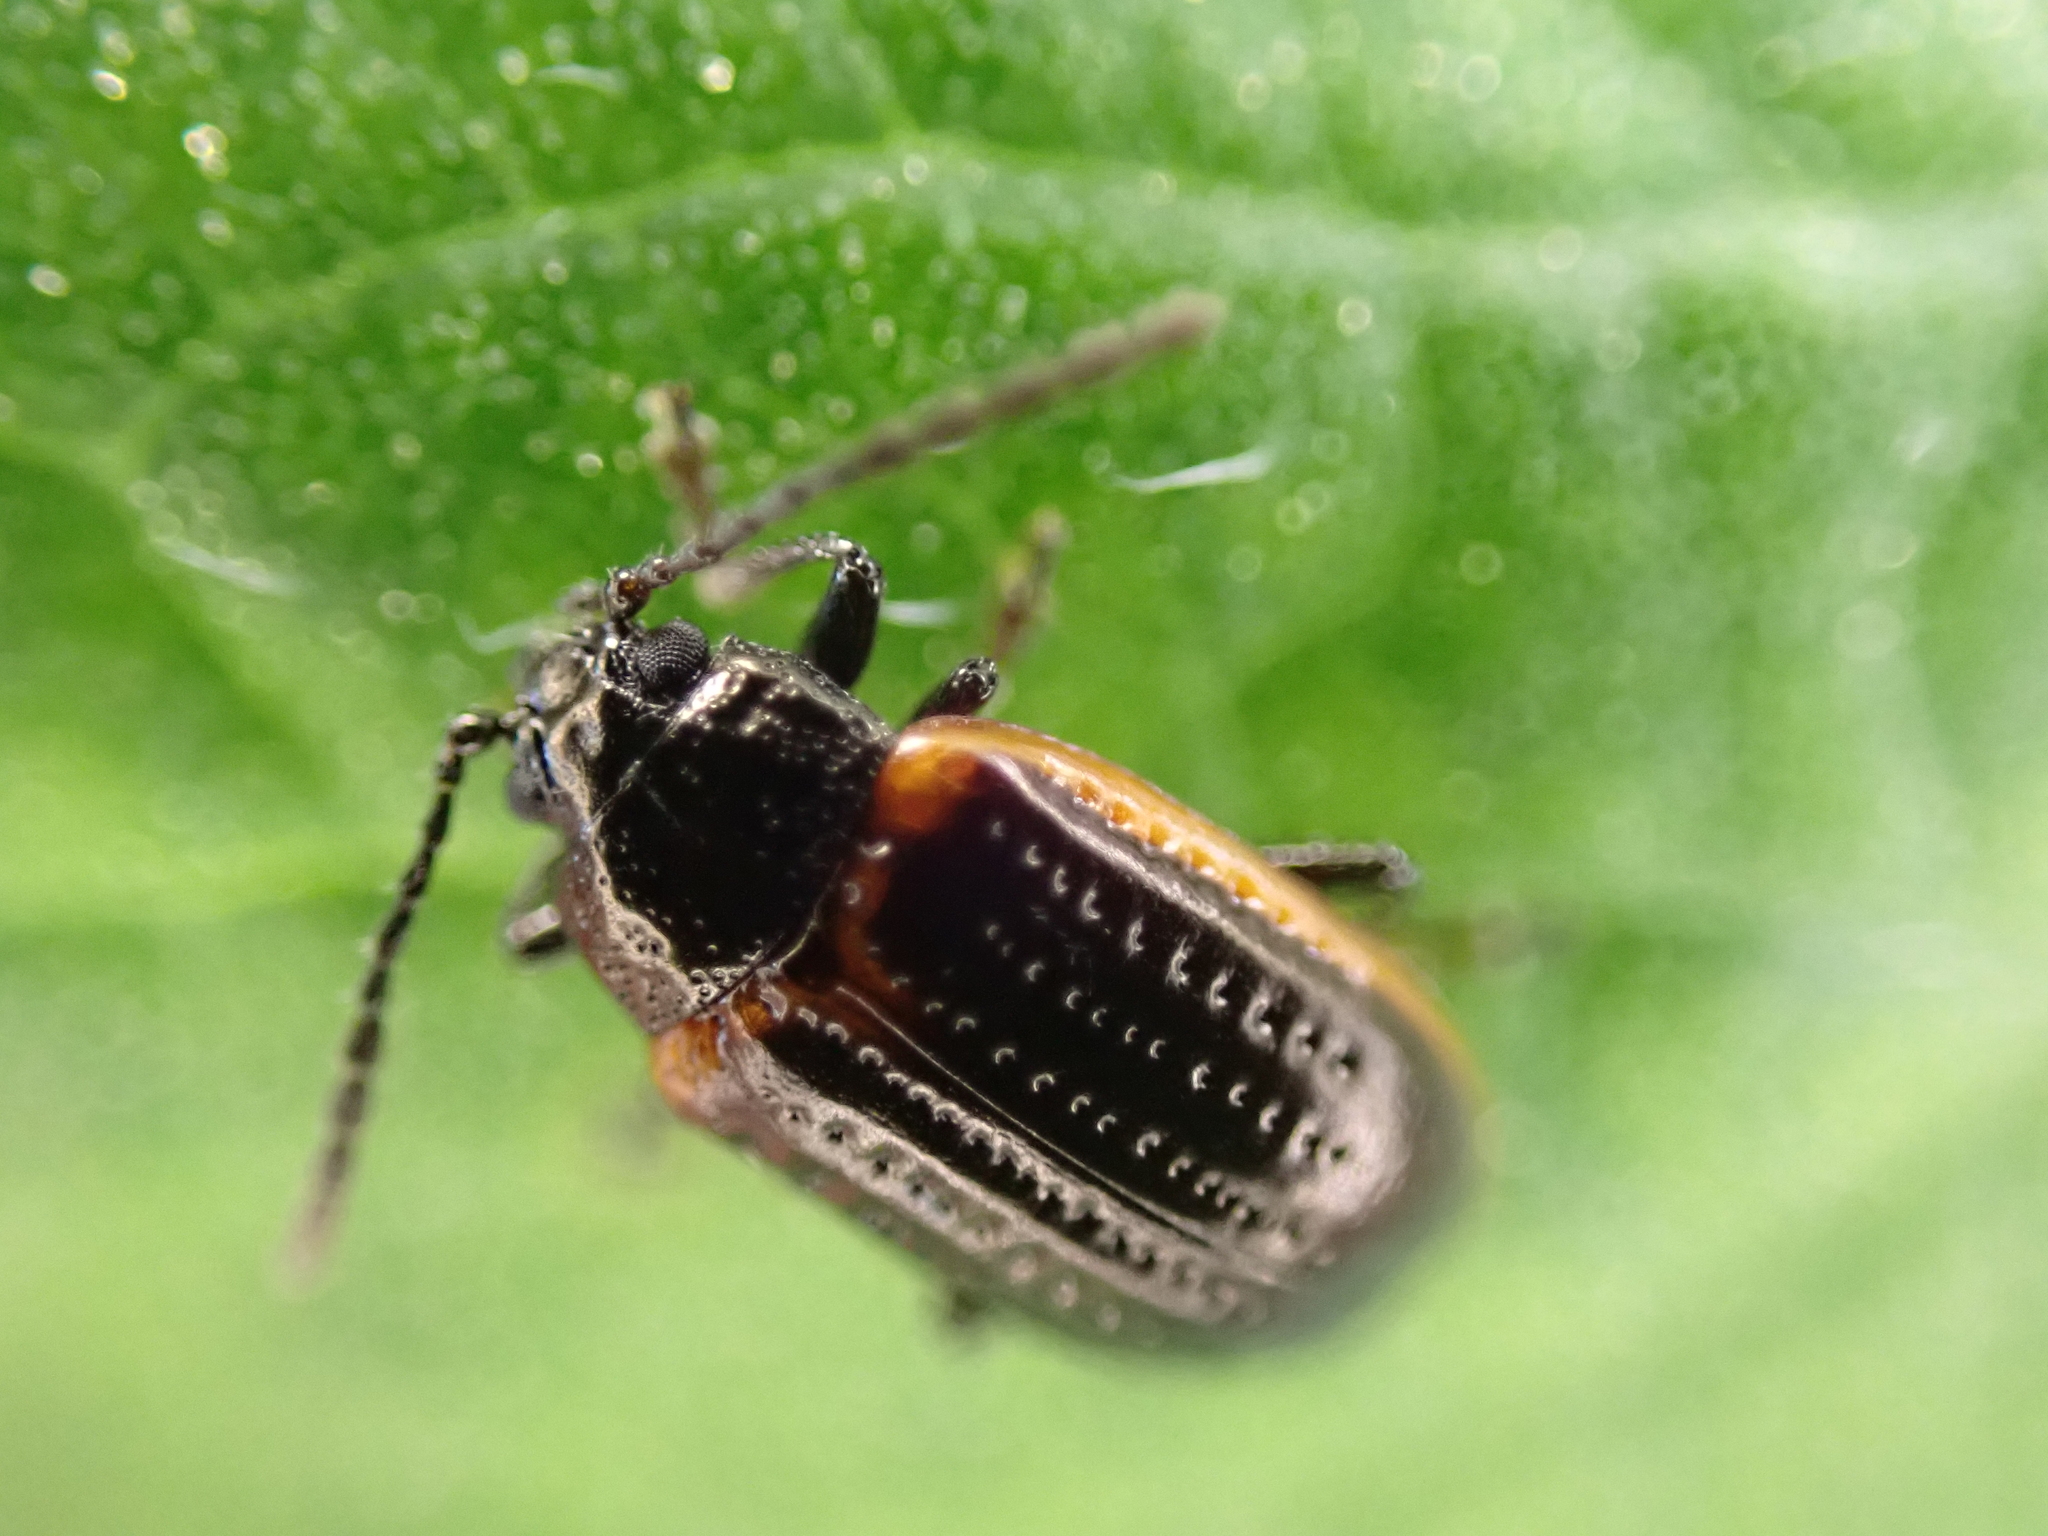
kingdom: Animalia
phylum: Arthropoda
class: Insecta
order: Coleoptera
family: Chrysomelidae
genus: Microtheca
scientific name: Microtheca ochroloma
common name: Leaf beetle
